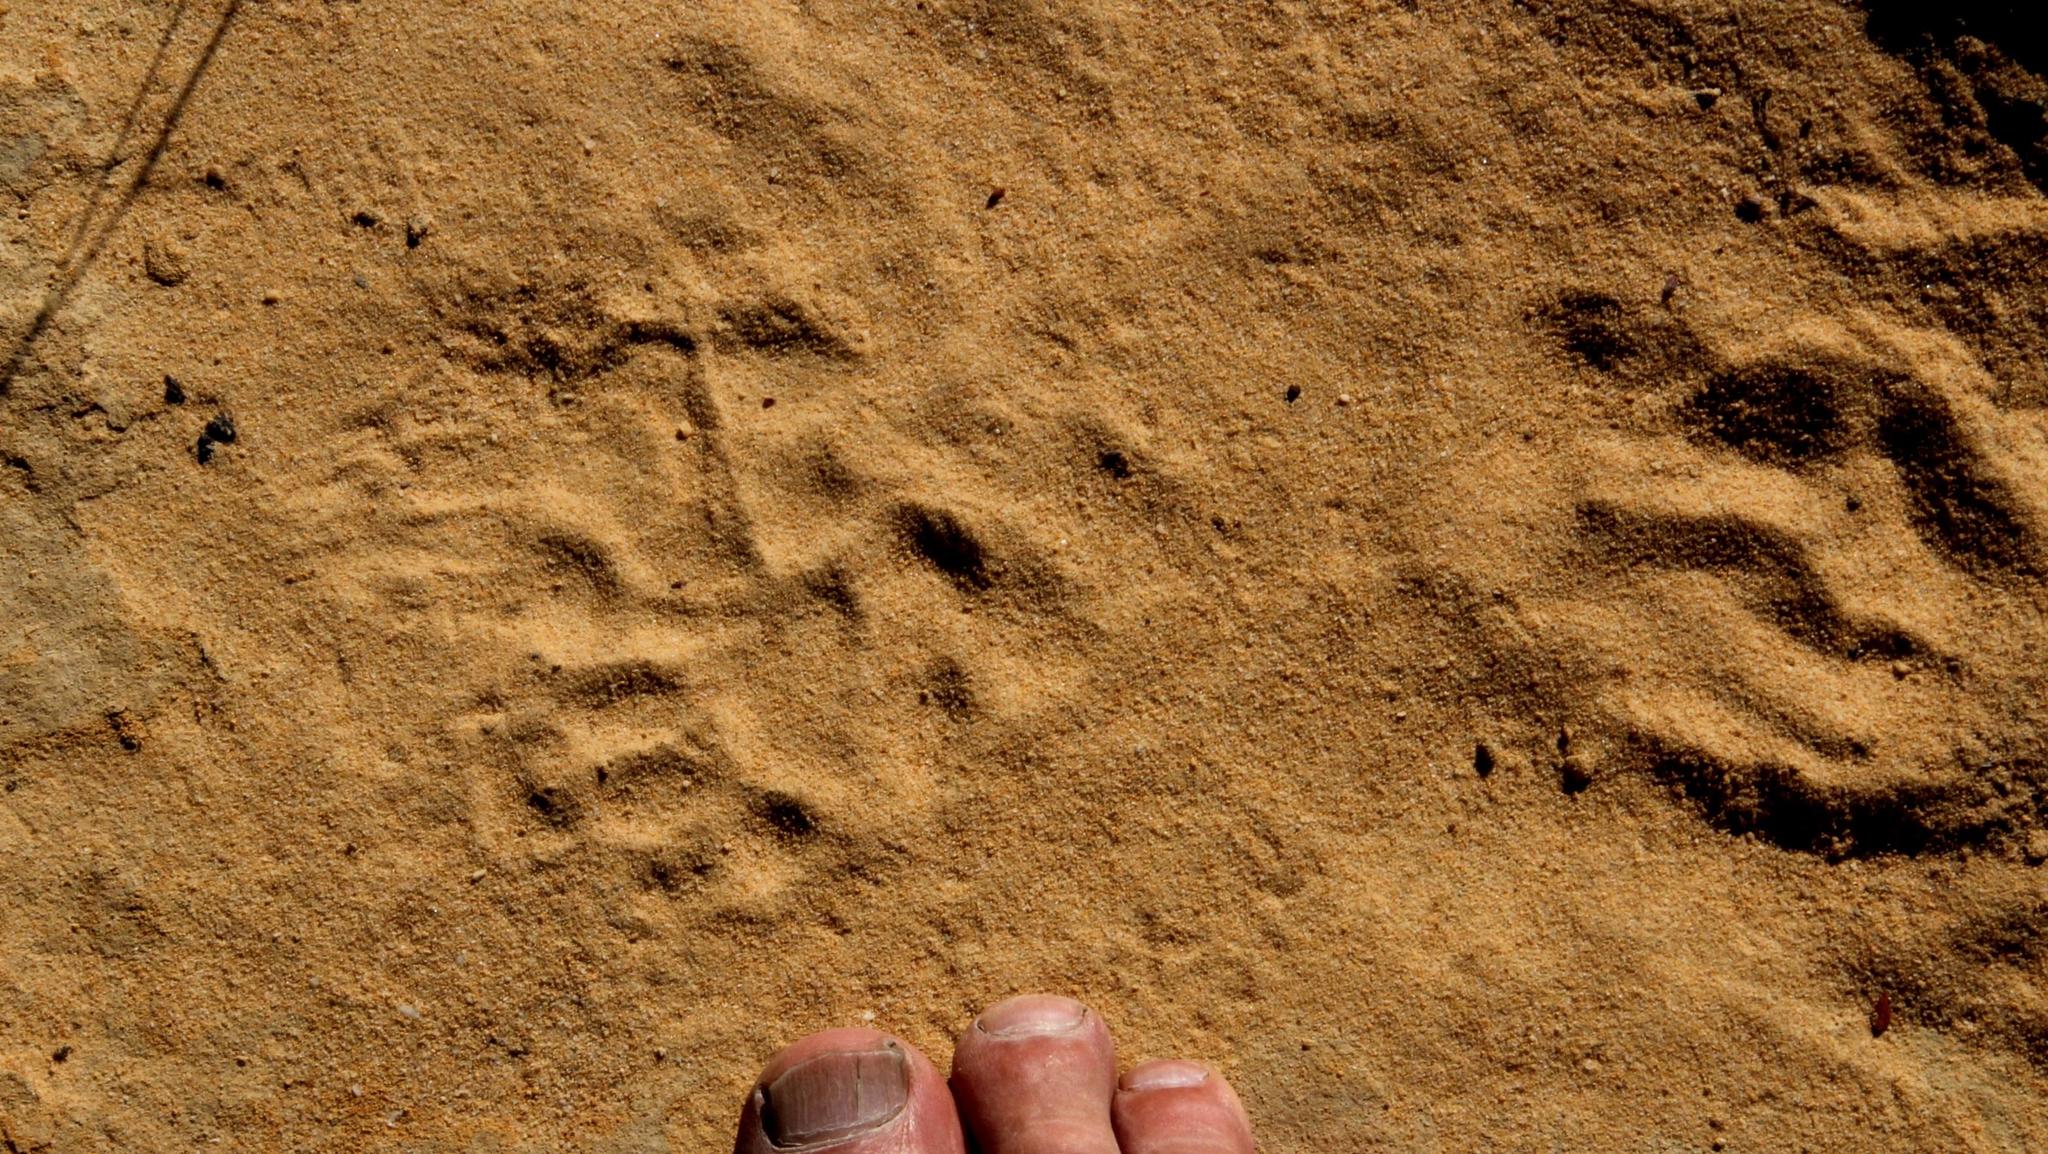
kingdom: Animalia
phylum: Chordata
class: Mammalia
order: Primates
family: Cercopithecidae
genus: Papio
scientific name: Papio ursinus
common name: Chacma baboon
